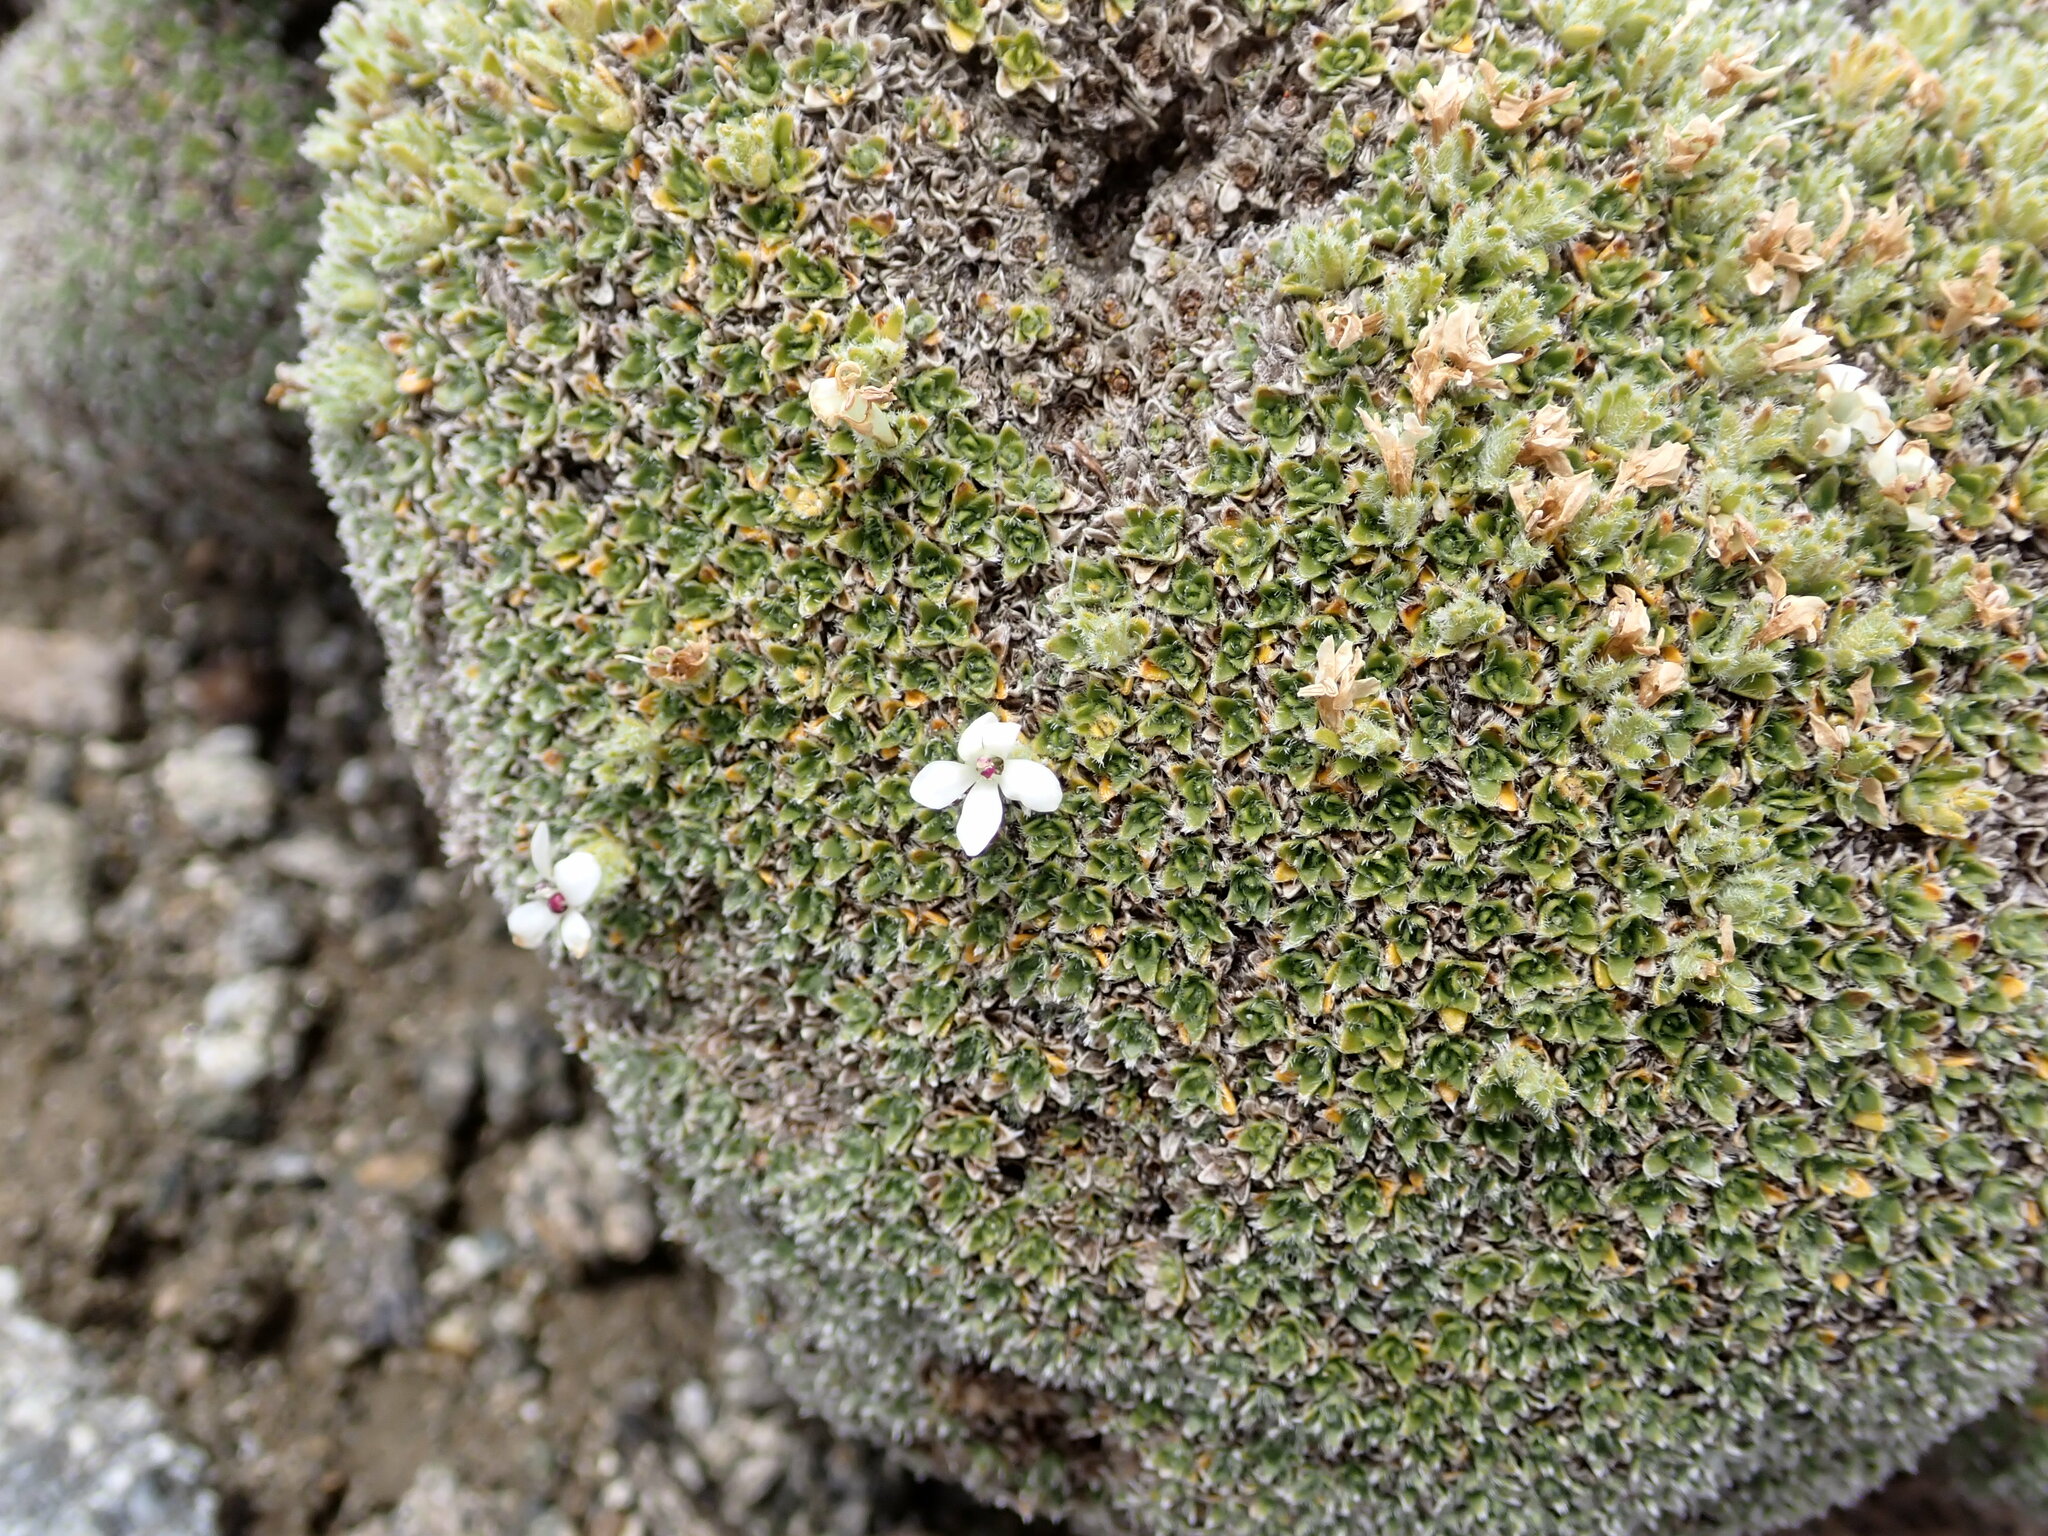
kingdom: Plantae
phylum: Tracheophyta
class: Magnoliopsida
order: Lamiales
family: Plantaginaceae
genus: Veronica
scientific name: Veronica ciliolata
